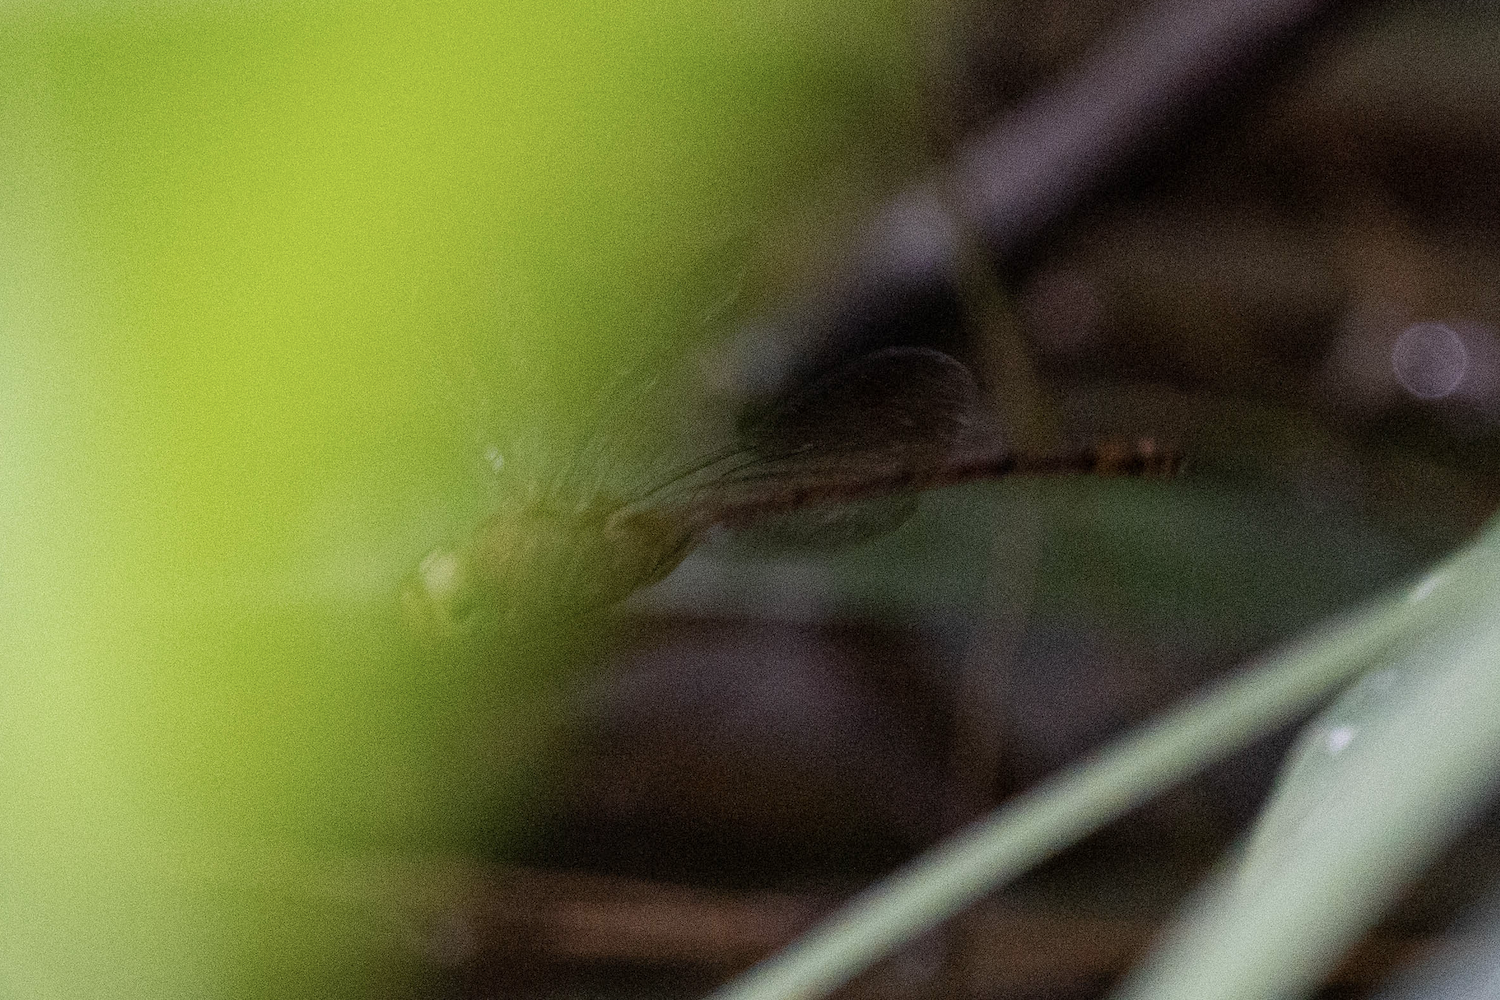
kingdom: Animalia
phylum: Arthropoda
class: Insecta
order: Odonata
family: Libellulidae
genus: Zyxomma
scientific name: Zyxomma petiolatum
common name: Dingy dusk-darter
